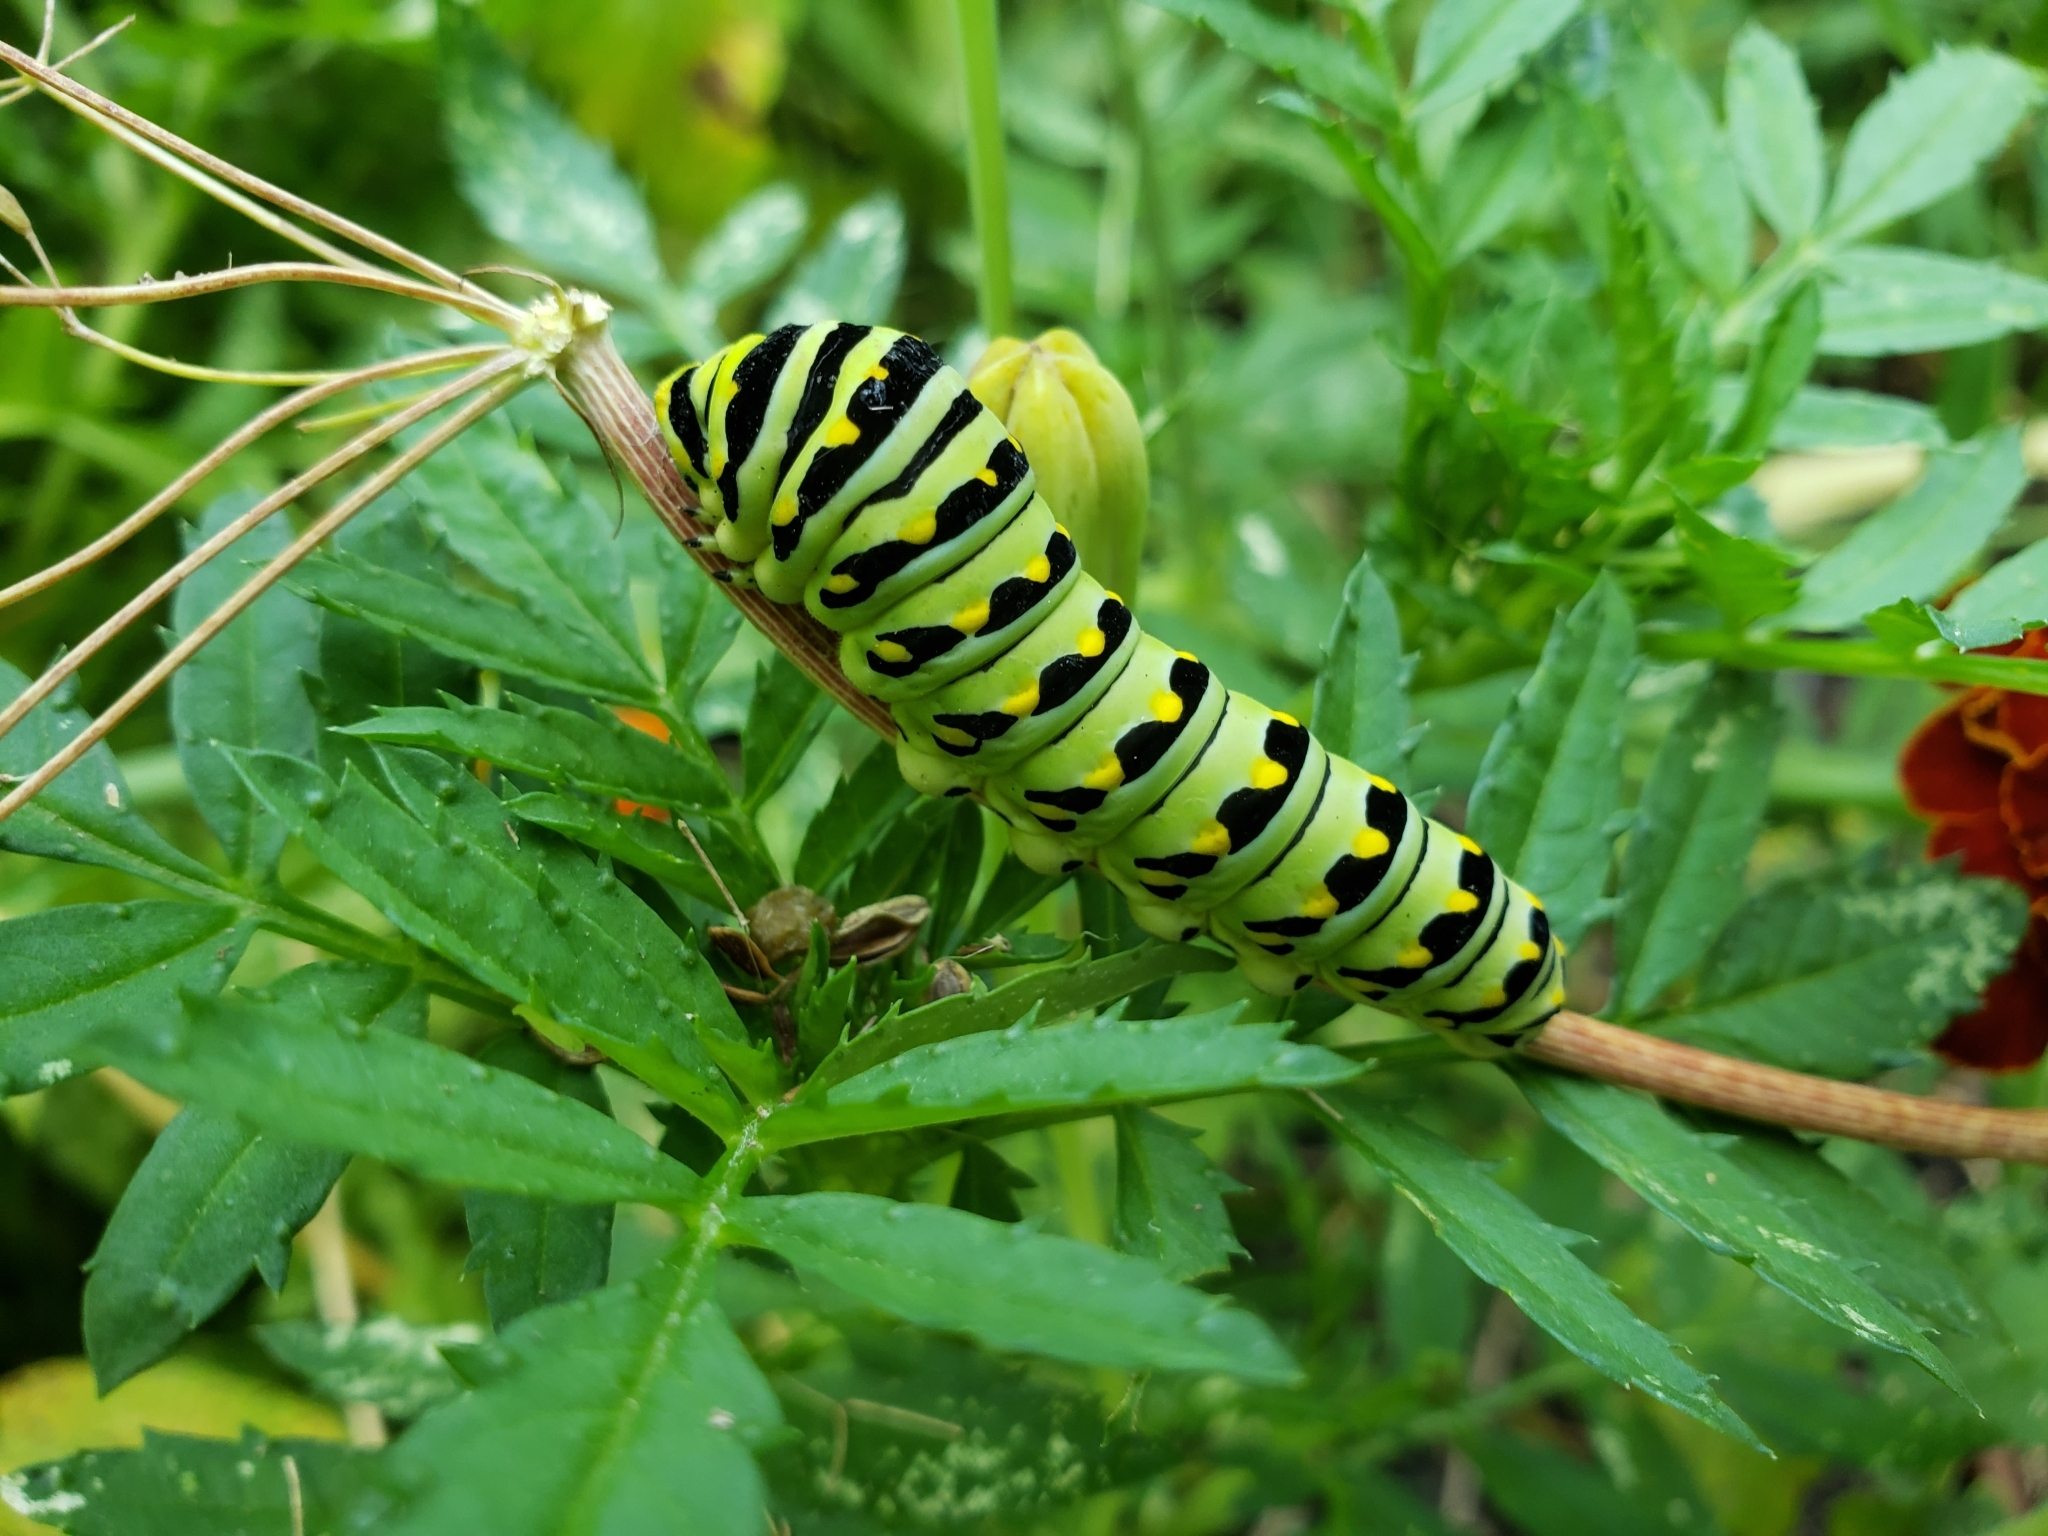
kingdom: Animalia
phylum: Arthropoda
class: Insecta
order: Lepidoptera
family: Papilionidae
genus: Papilio
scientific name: Papilio polyxenes
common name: Black swallowtail
